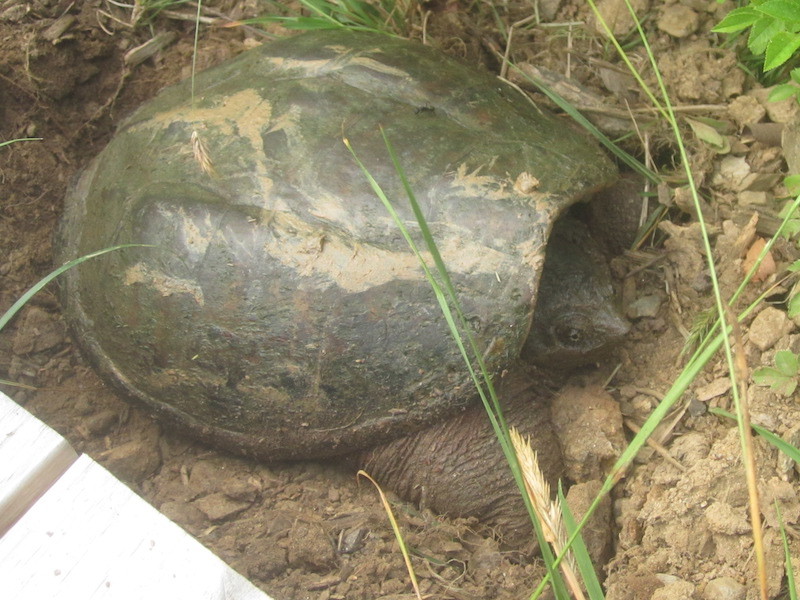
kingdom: Animalia
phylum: Chordata
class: Testudines
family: Chelydridae
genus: Chelydra
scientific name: Chelydra serpentina
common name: Common snapping turtle
